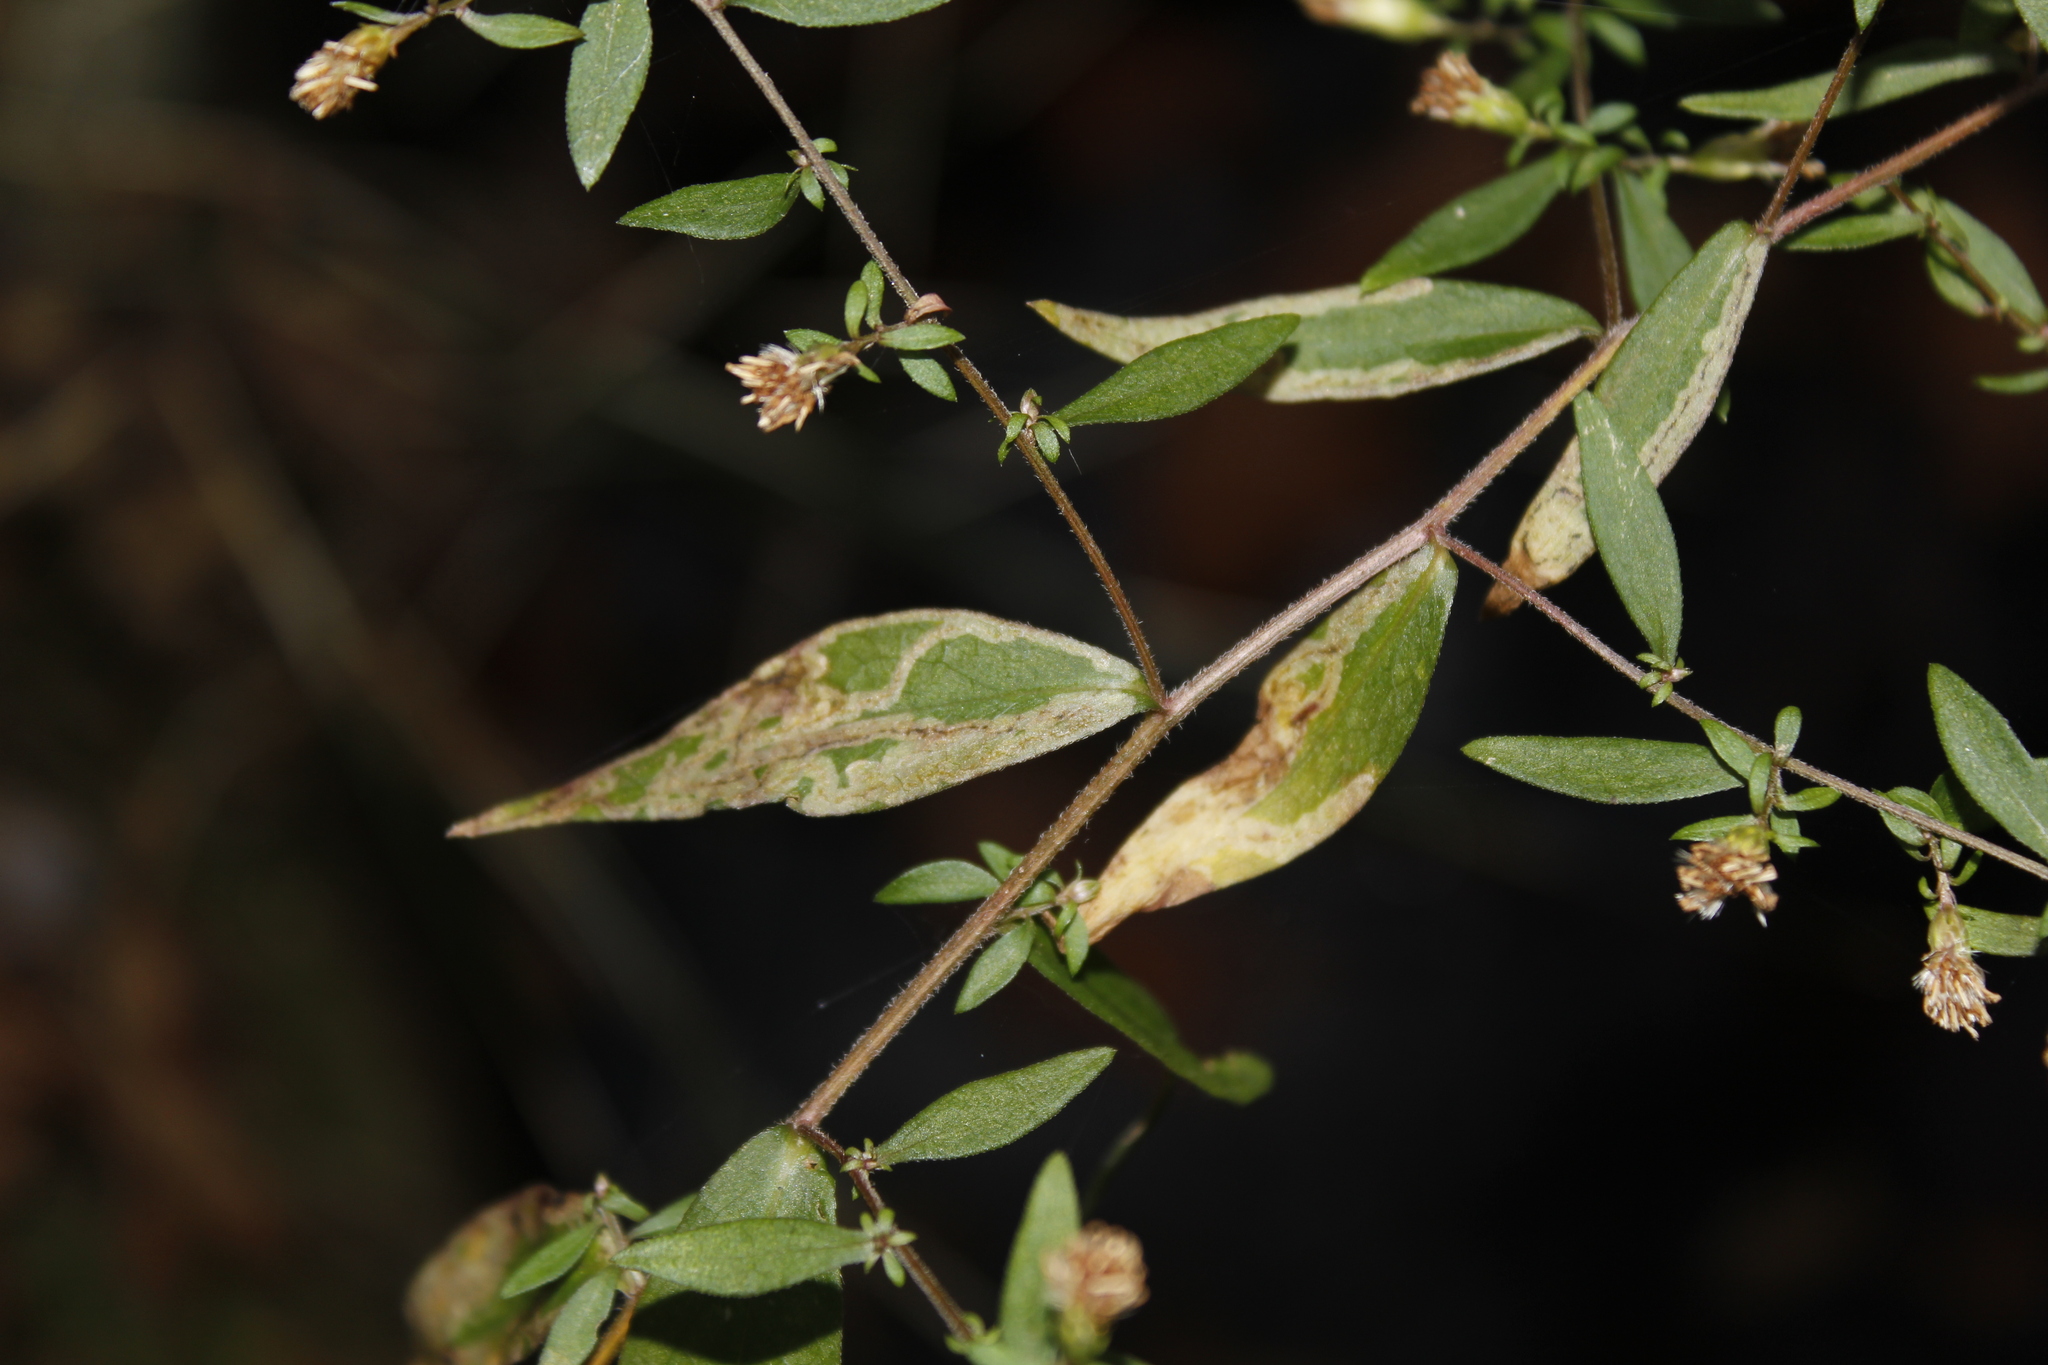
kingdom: Animalia
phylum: Arthropoda
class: Insecta
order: Diptera
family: Agromyzidae
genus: Liriomyza
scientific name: Liriomyza eupatorii
